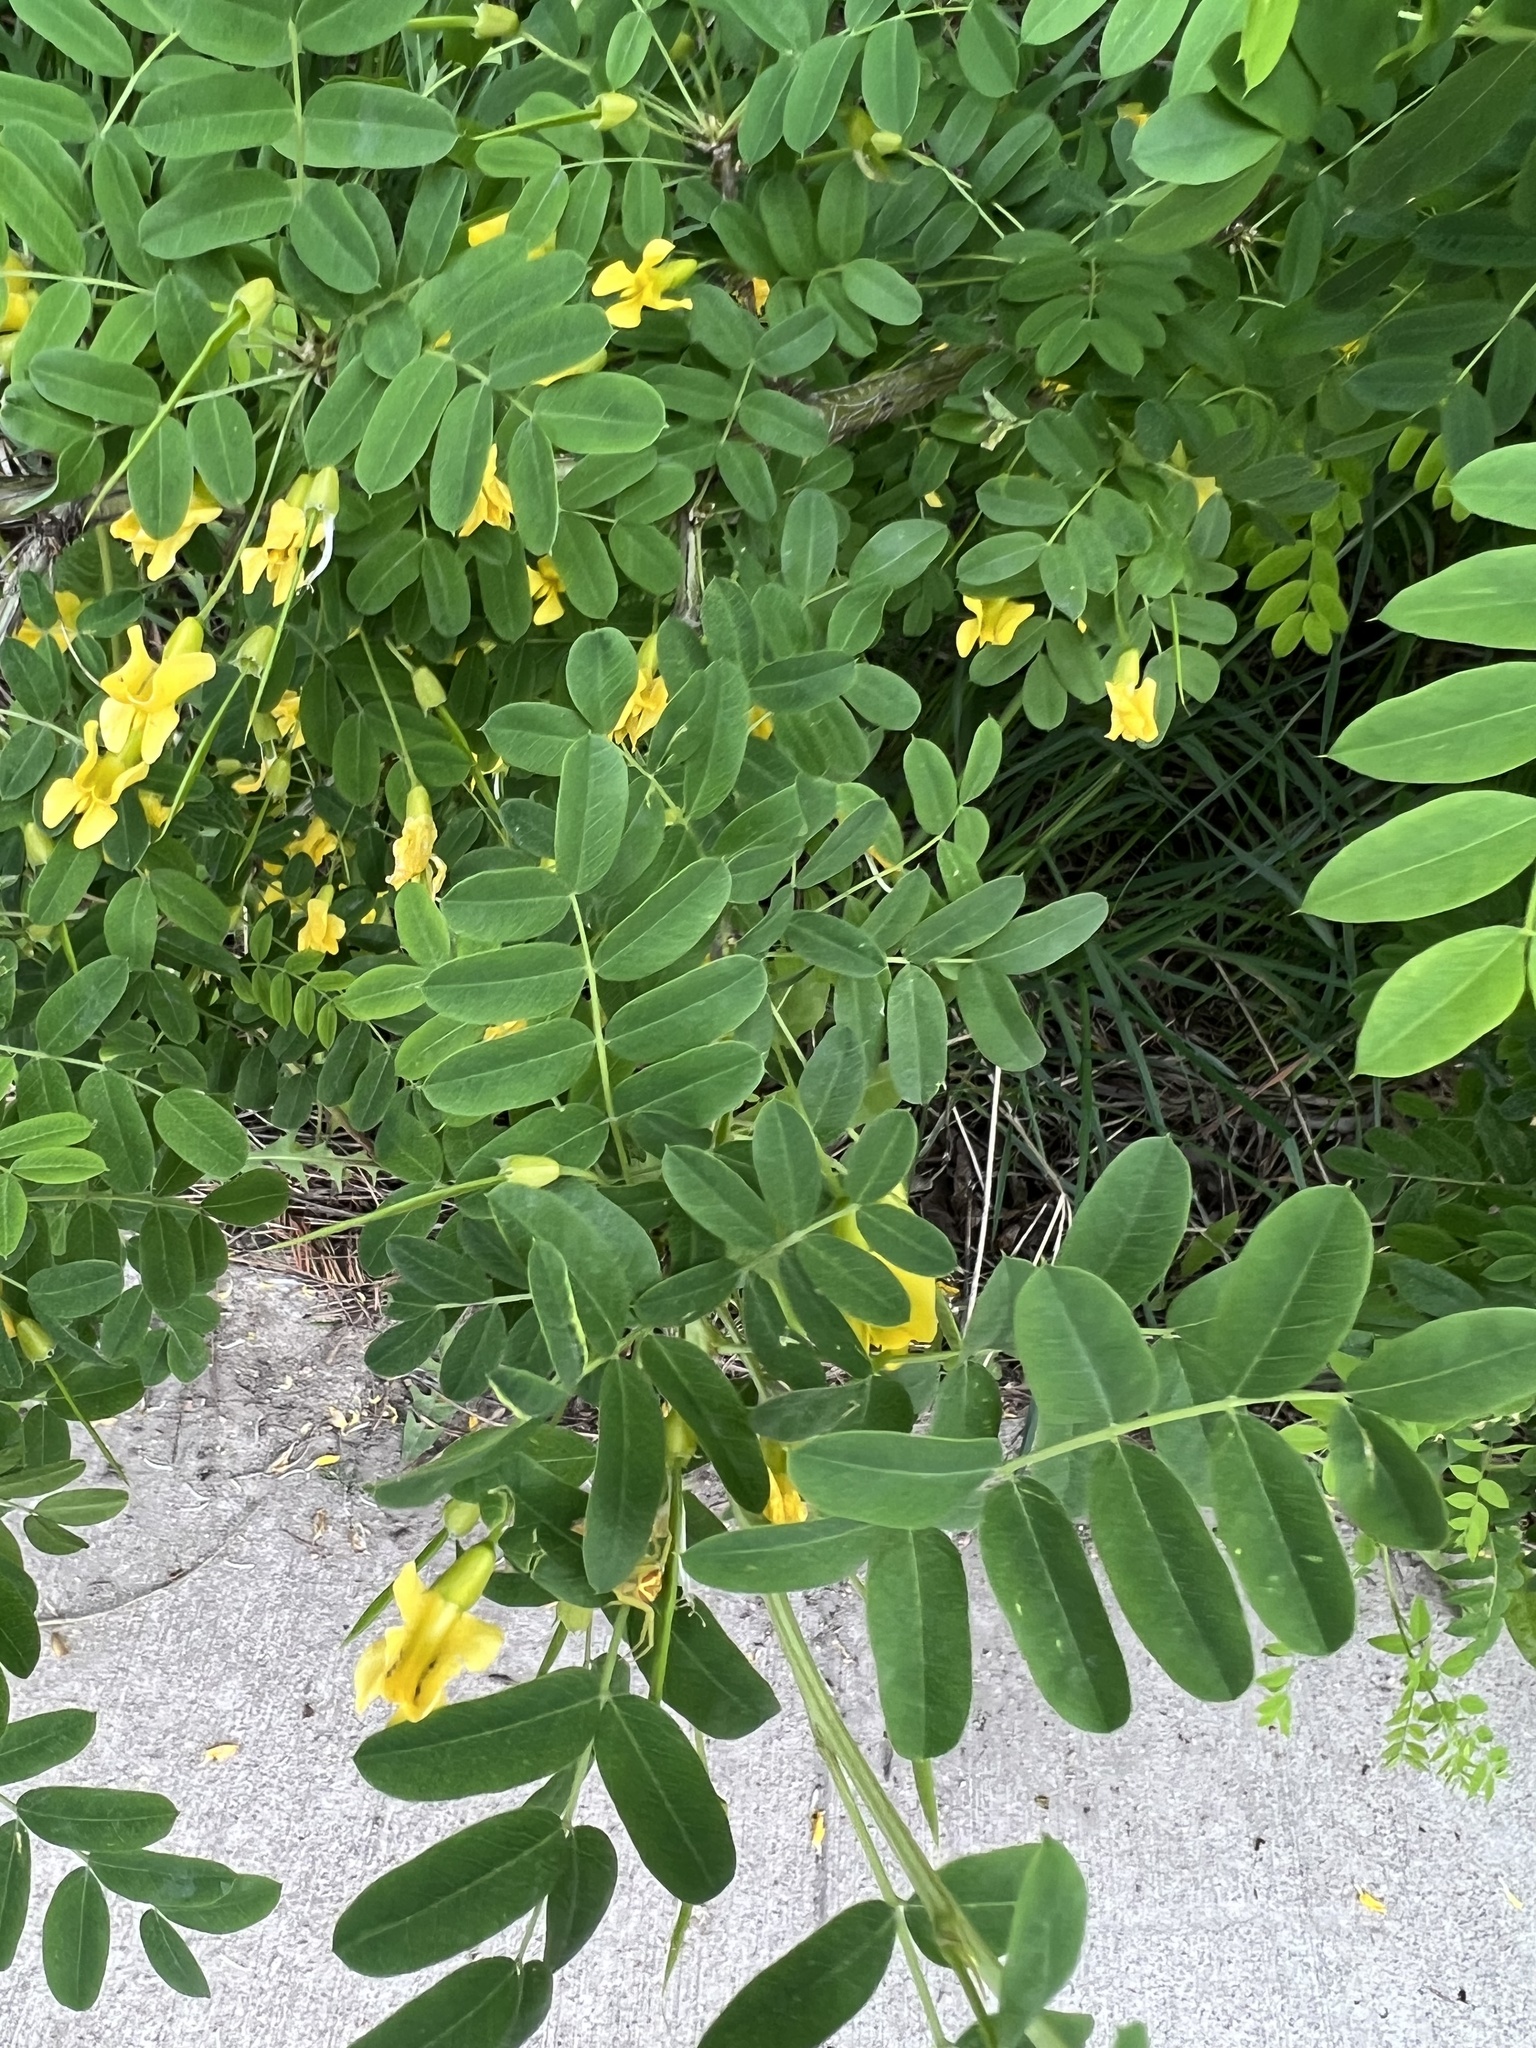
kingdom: Plantae
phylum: Tracheophyta
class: Magnoliopsida
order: Fabales
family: Fabaceae
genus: Caragana
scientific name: Caragana arborescens
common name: Siberian peashrub
